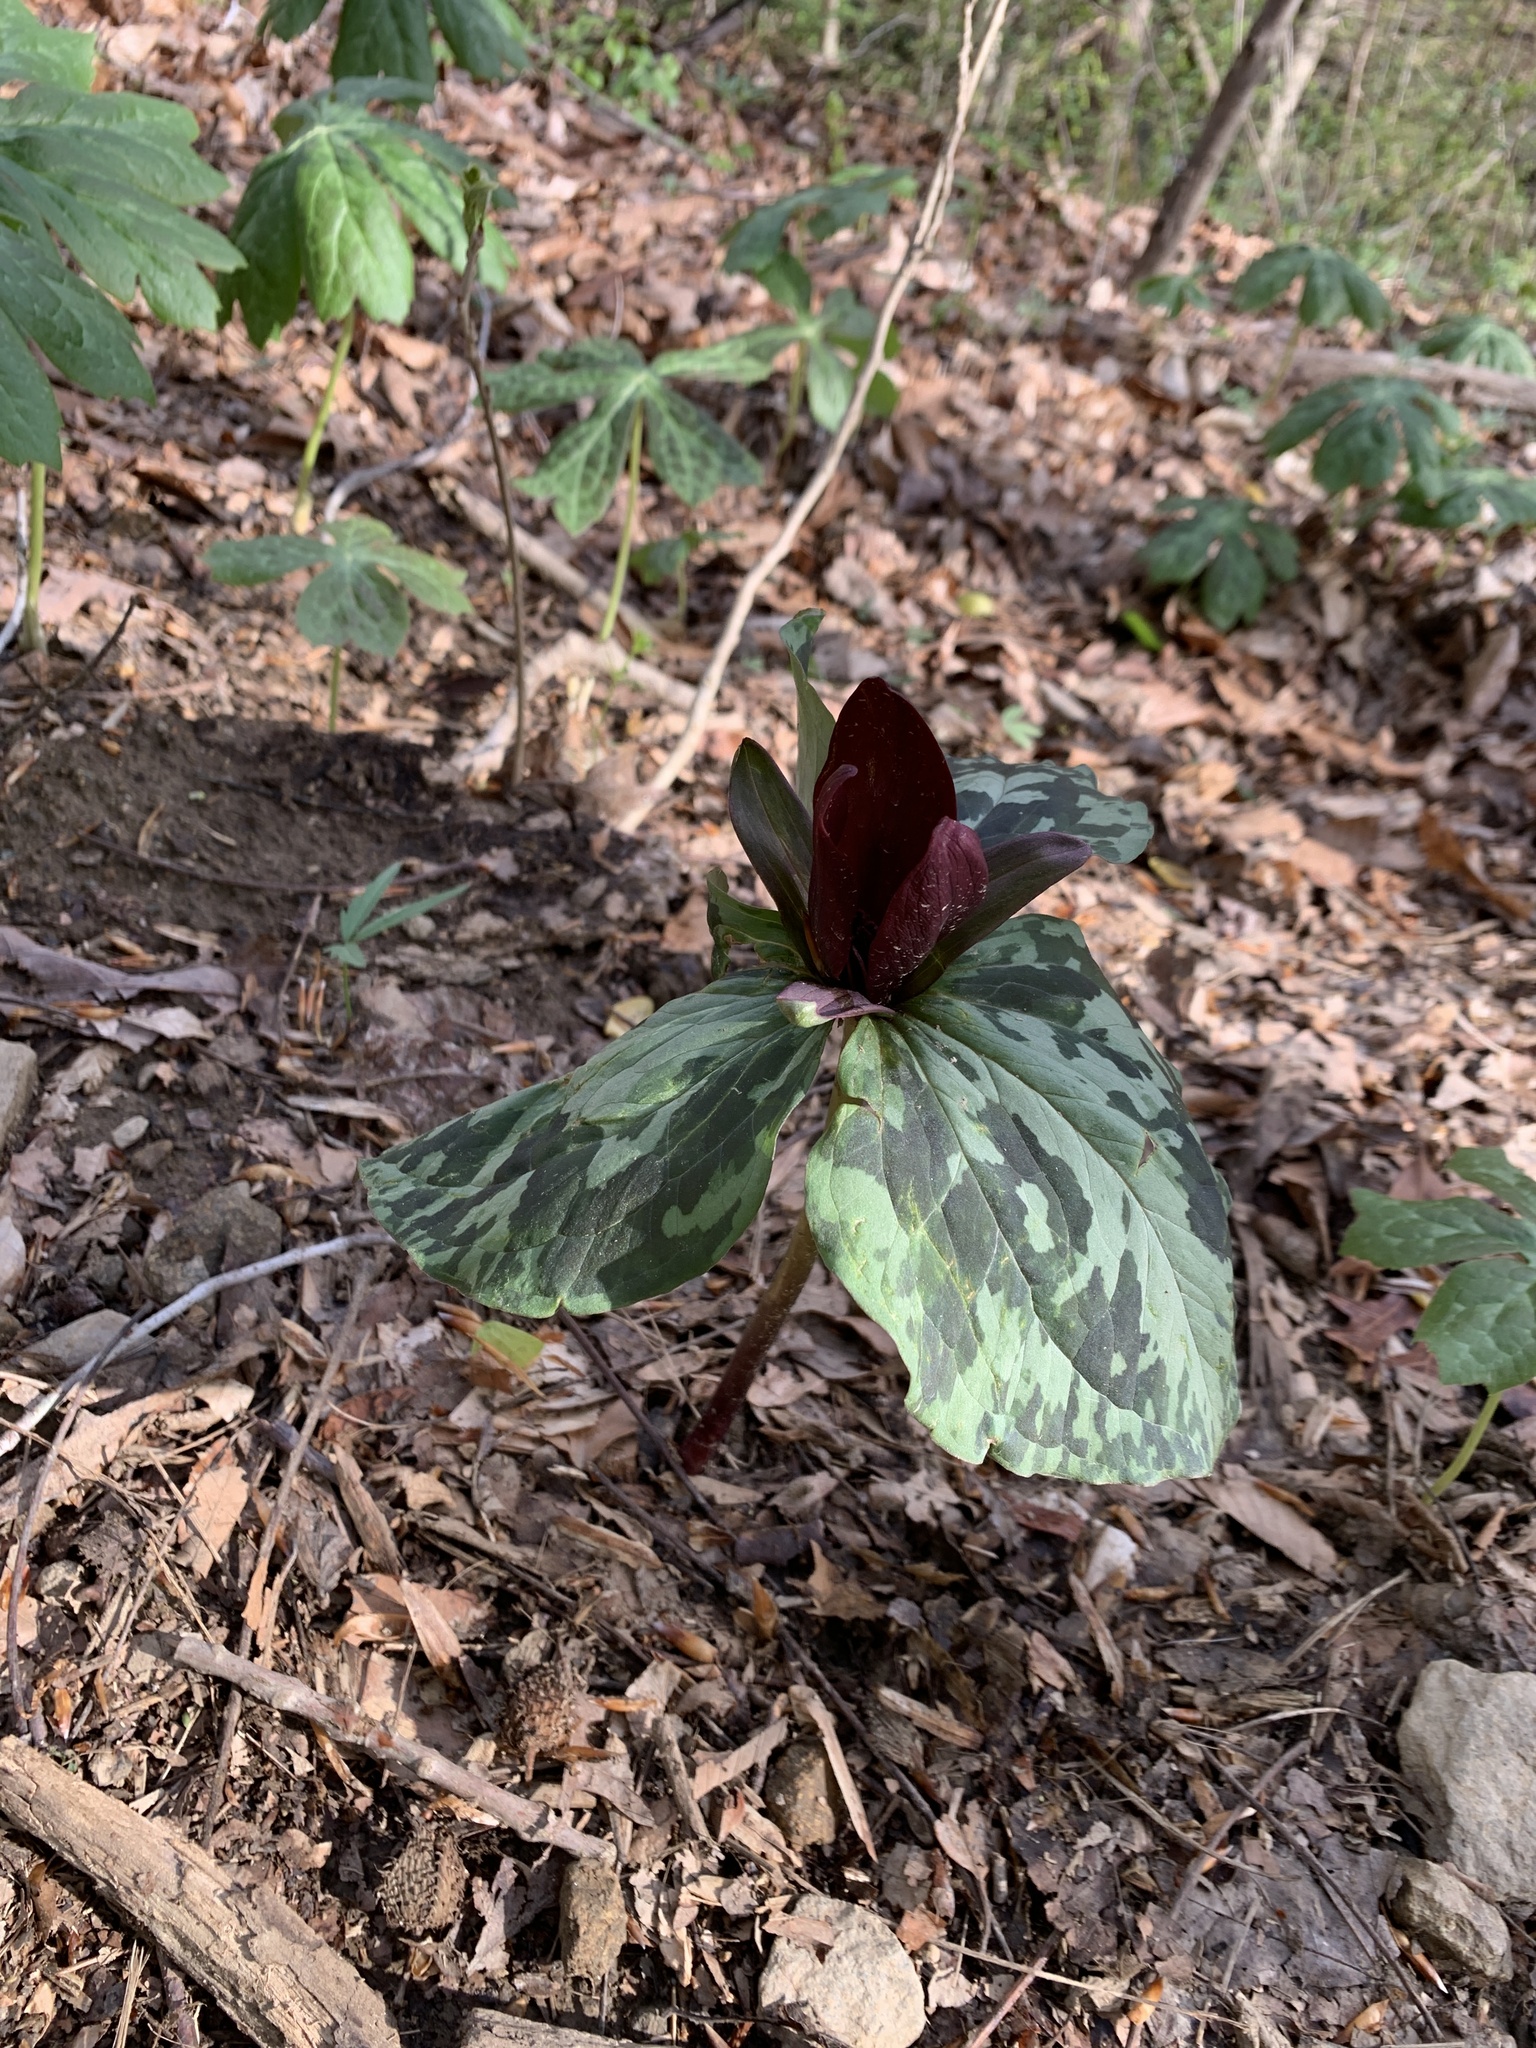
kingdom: Plantae
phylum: Tracheophyta
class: Liliopsida
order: Liliales
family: Melanthiaceae
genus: Trillium
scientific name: Trillium cuneatum
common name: Cuneate trillium
